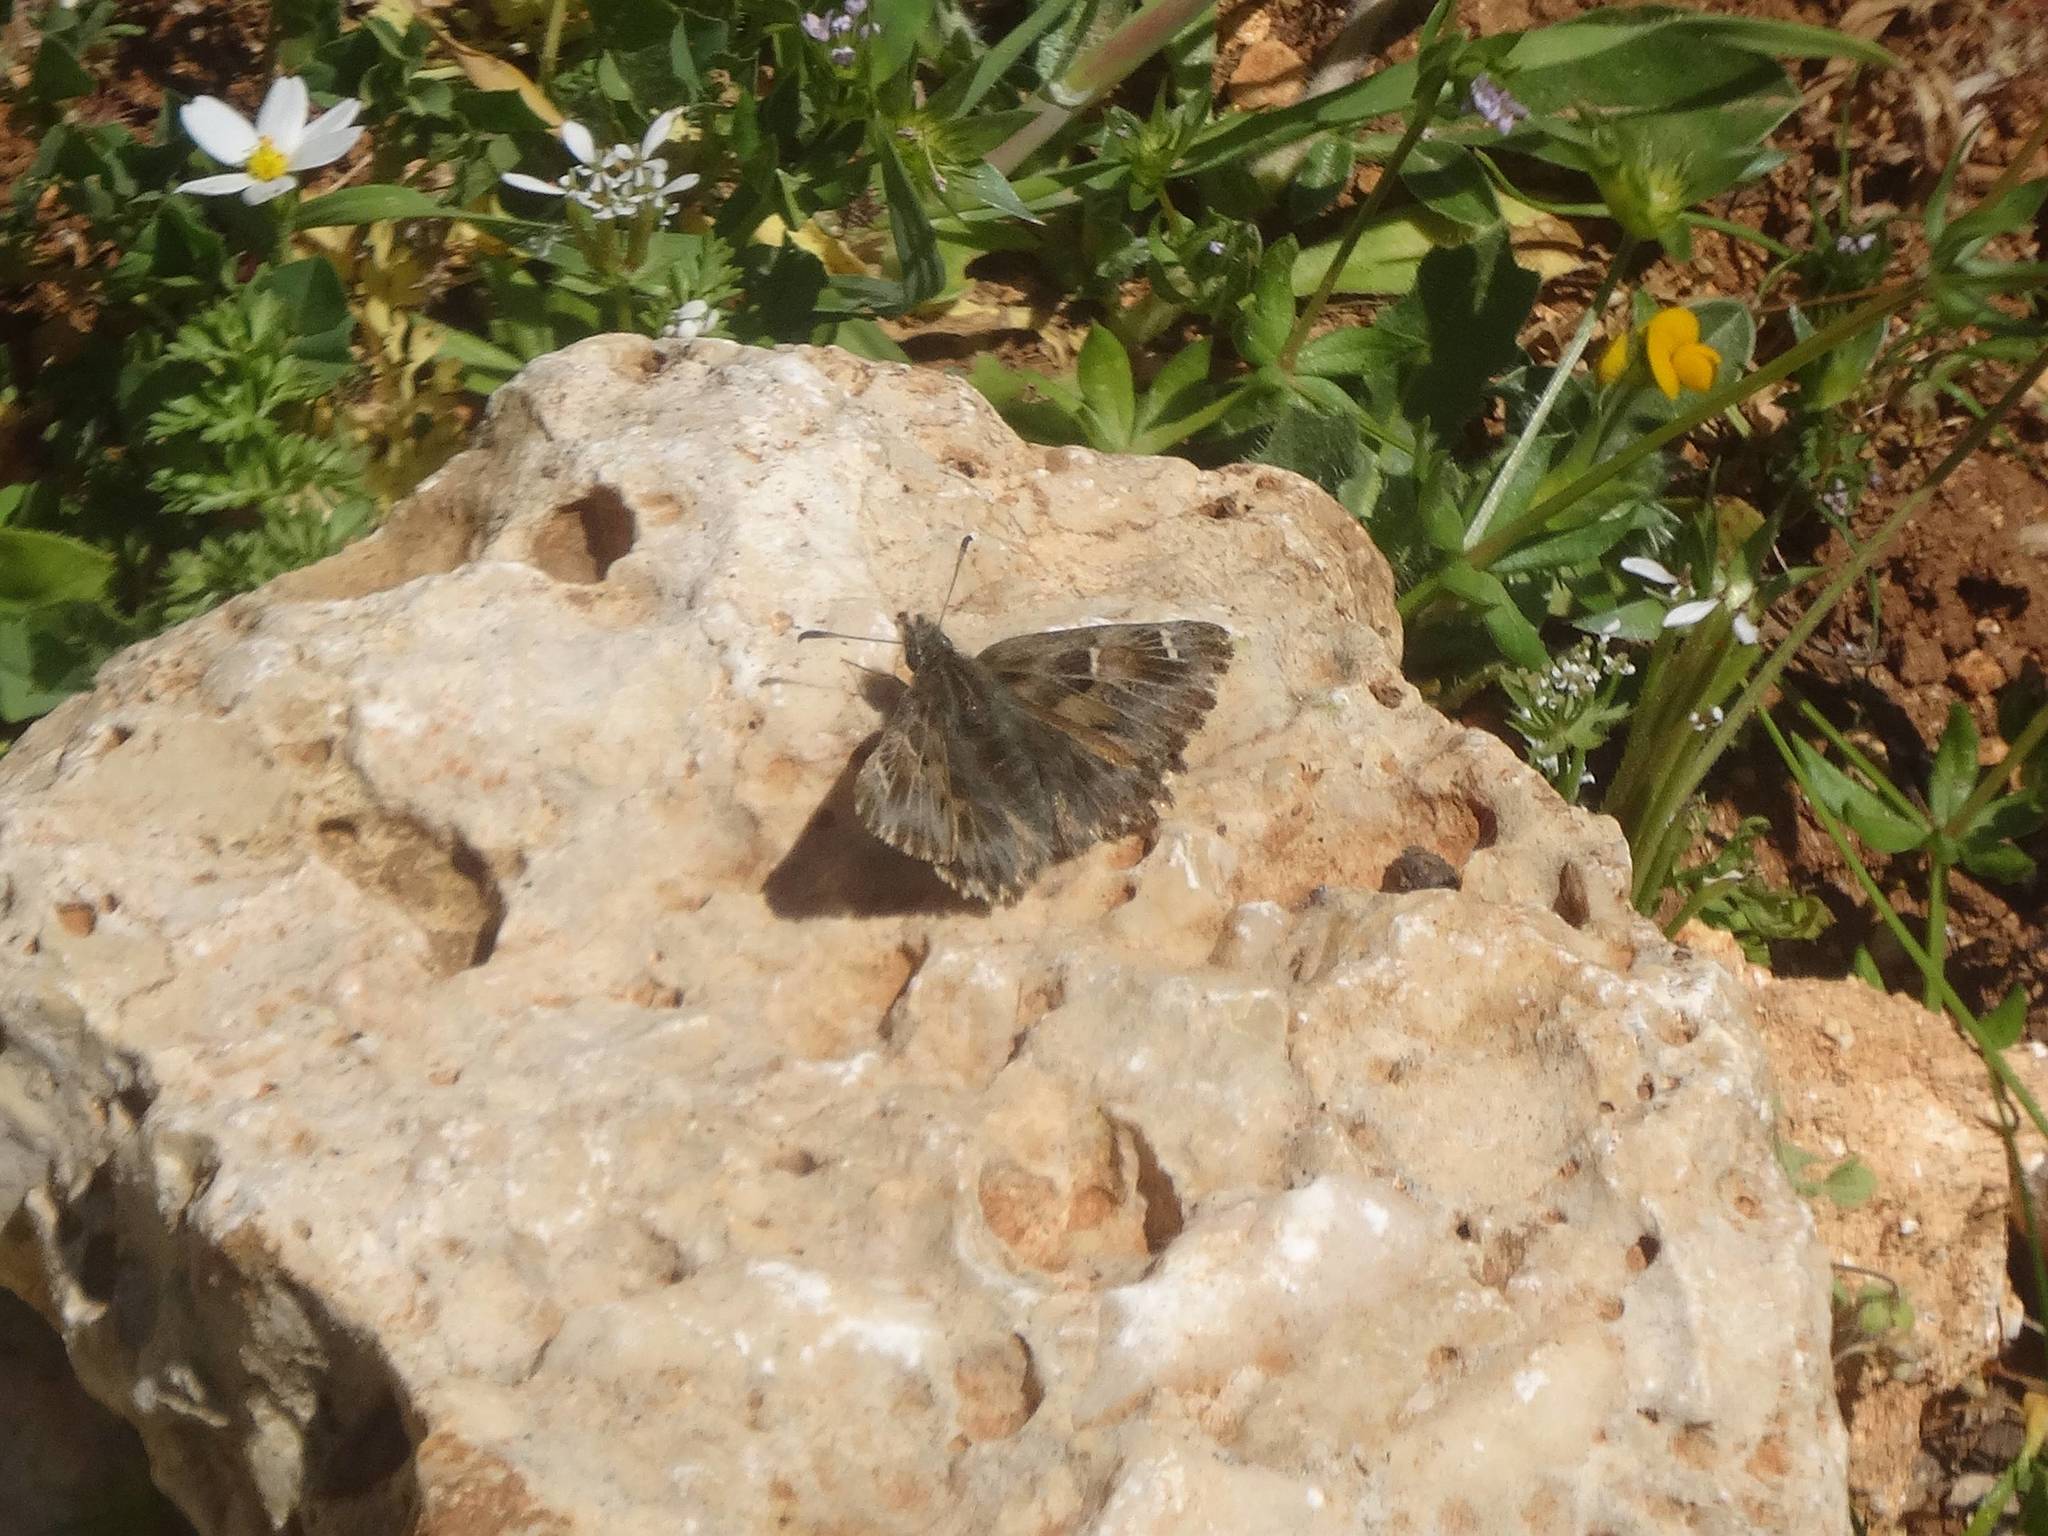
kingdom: Animalia
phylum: Arthropoda
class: Insecta
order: Lepidoptera
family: Hesperiidae
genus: Carcharodus
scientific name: Carcharodus alceae
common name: Mallow skipper
